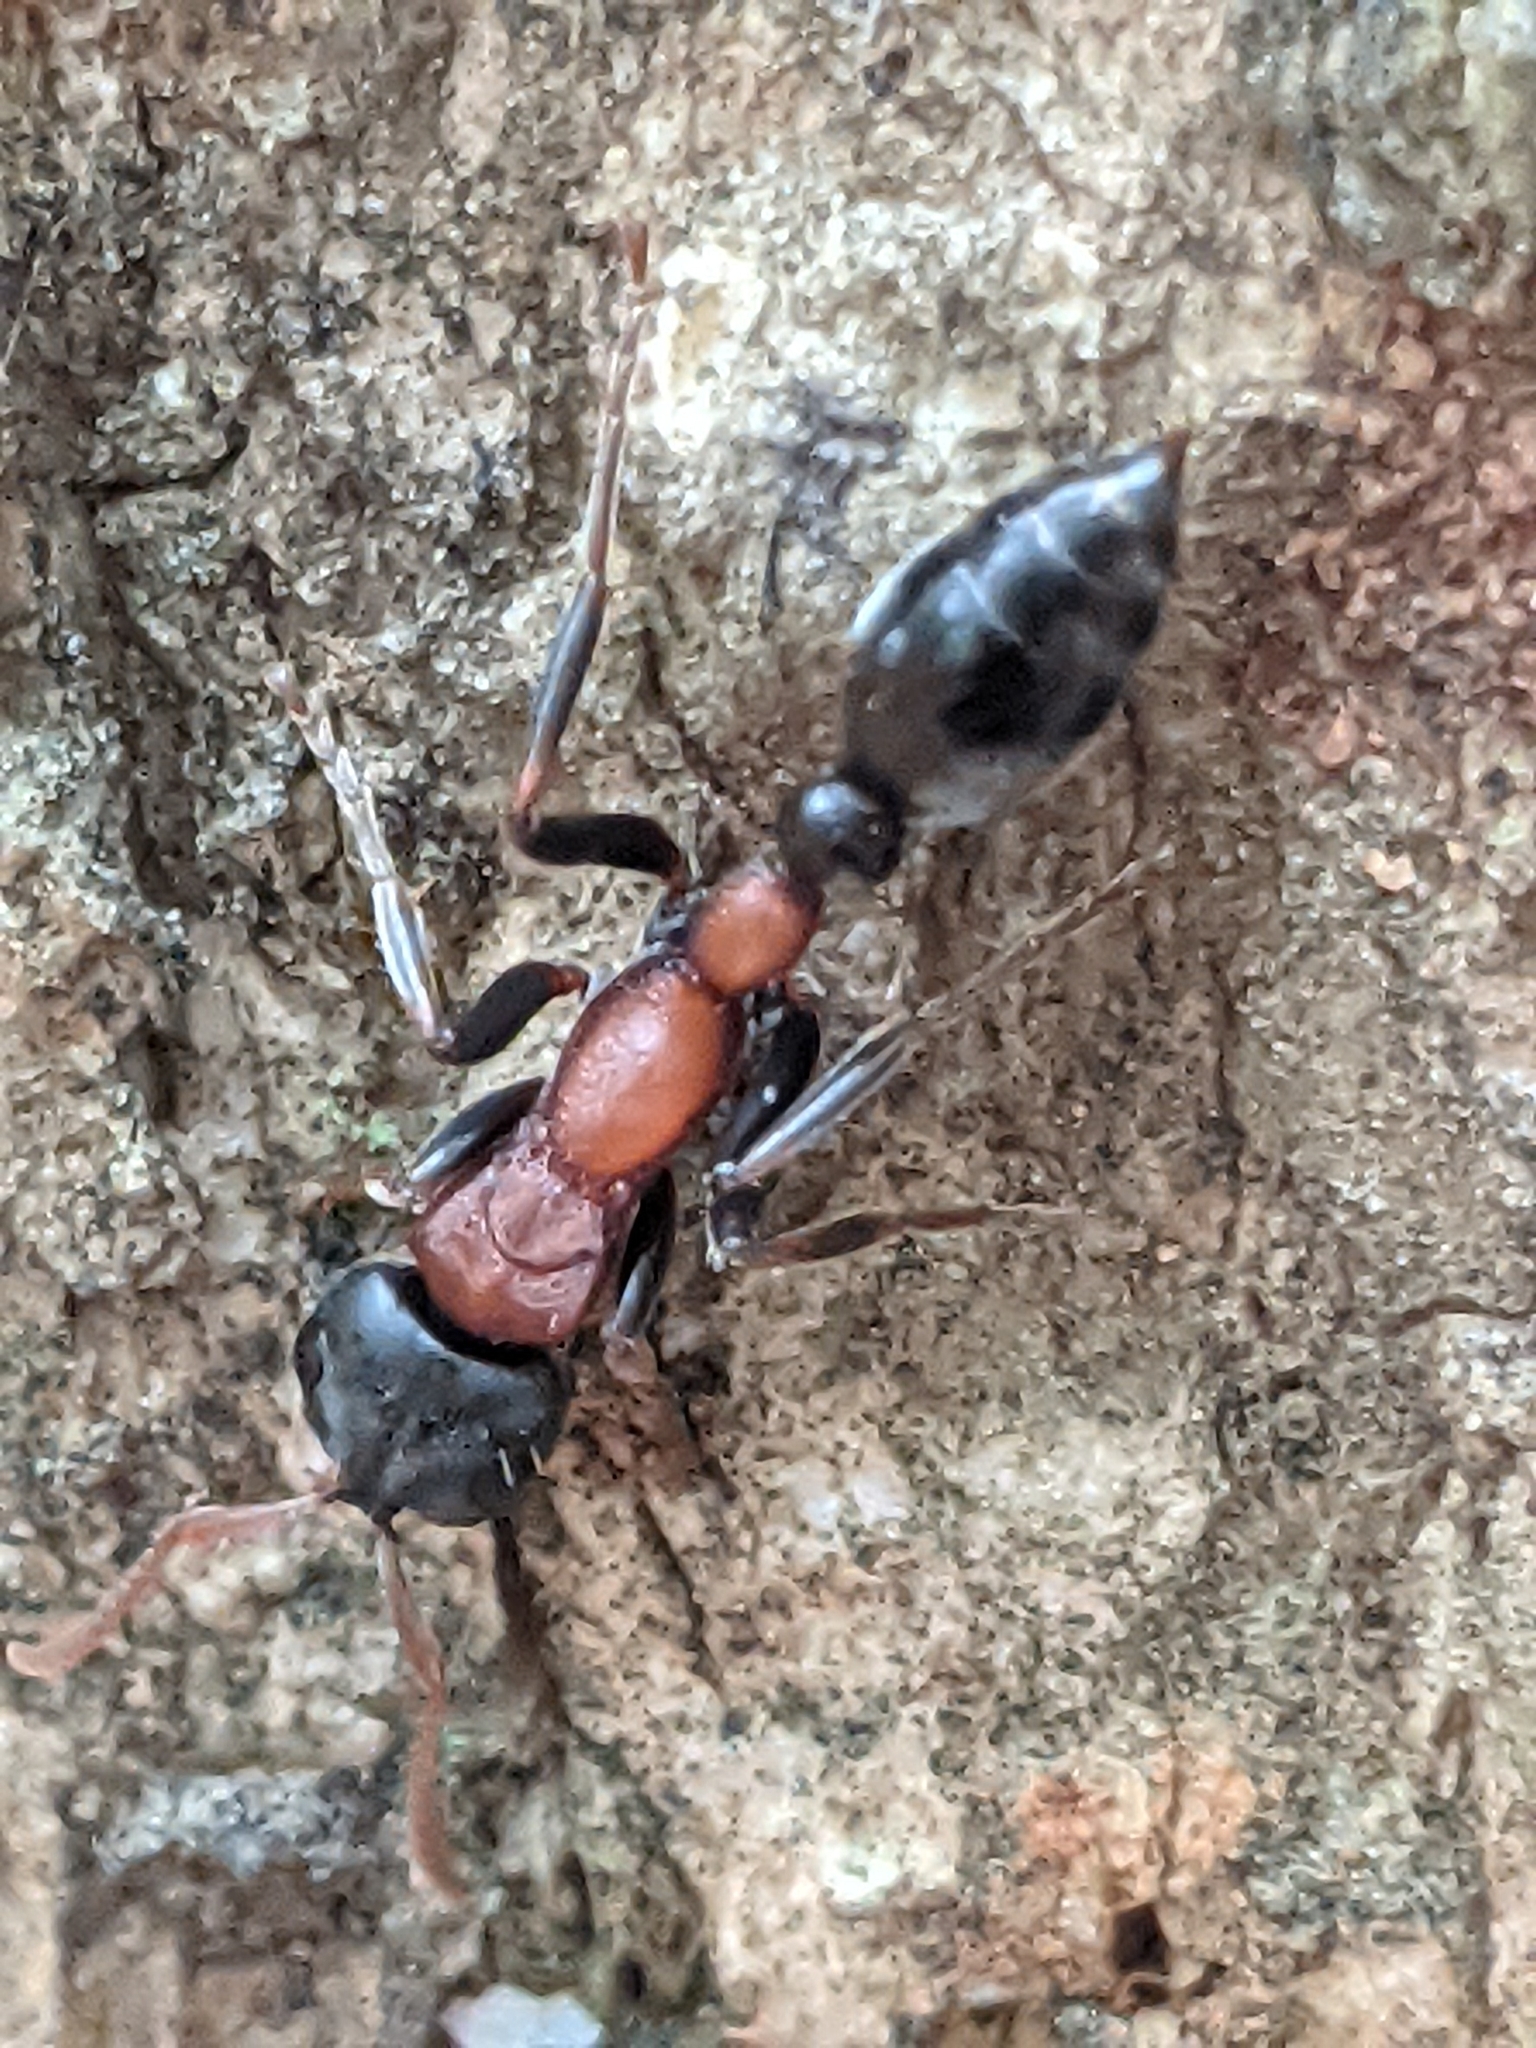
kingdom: Animalia
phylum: Arthropoda
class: Insecta
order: Hymenoptera
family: Formicidae
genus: Tetraponera
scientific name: Tetraponera rufonigra
